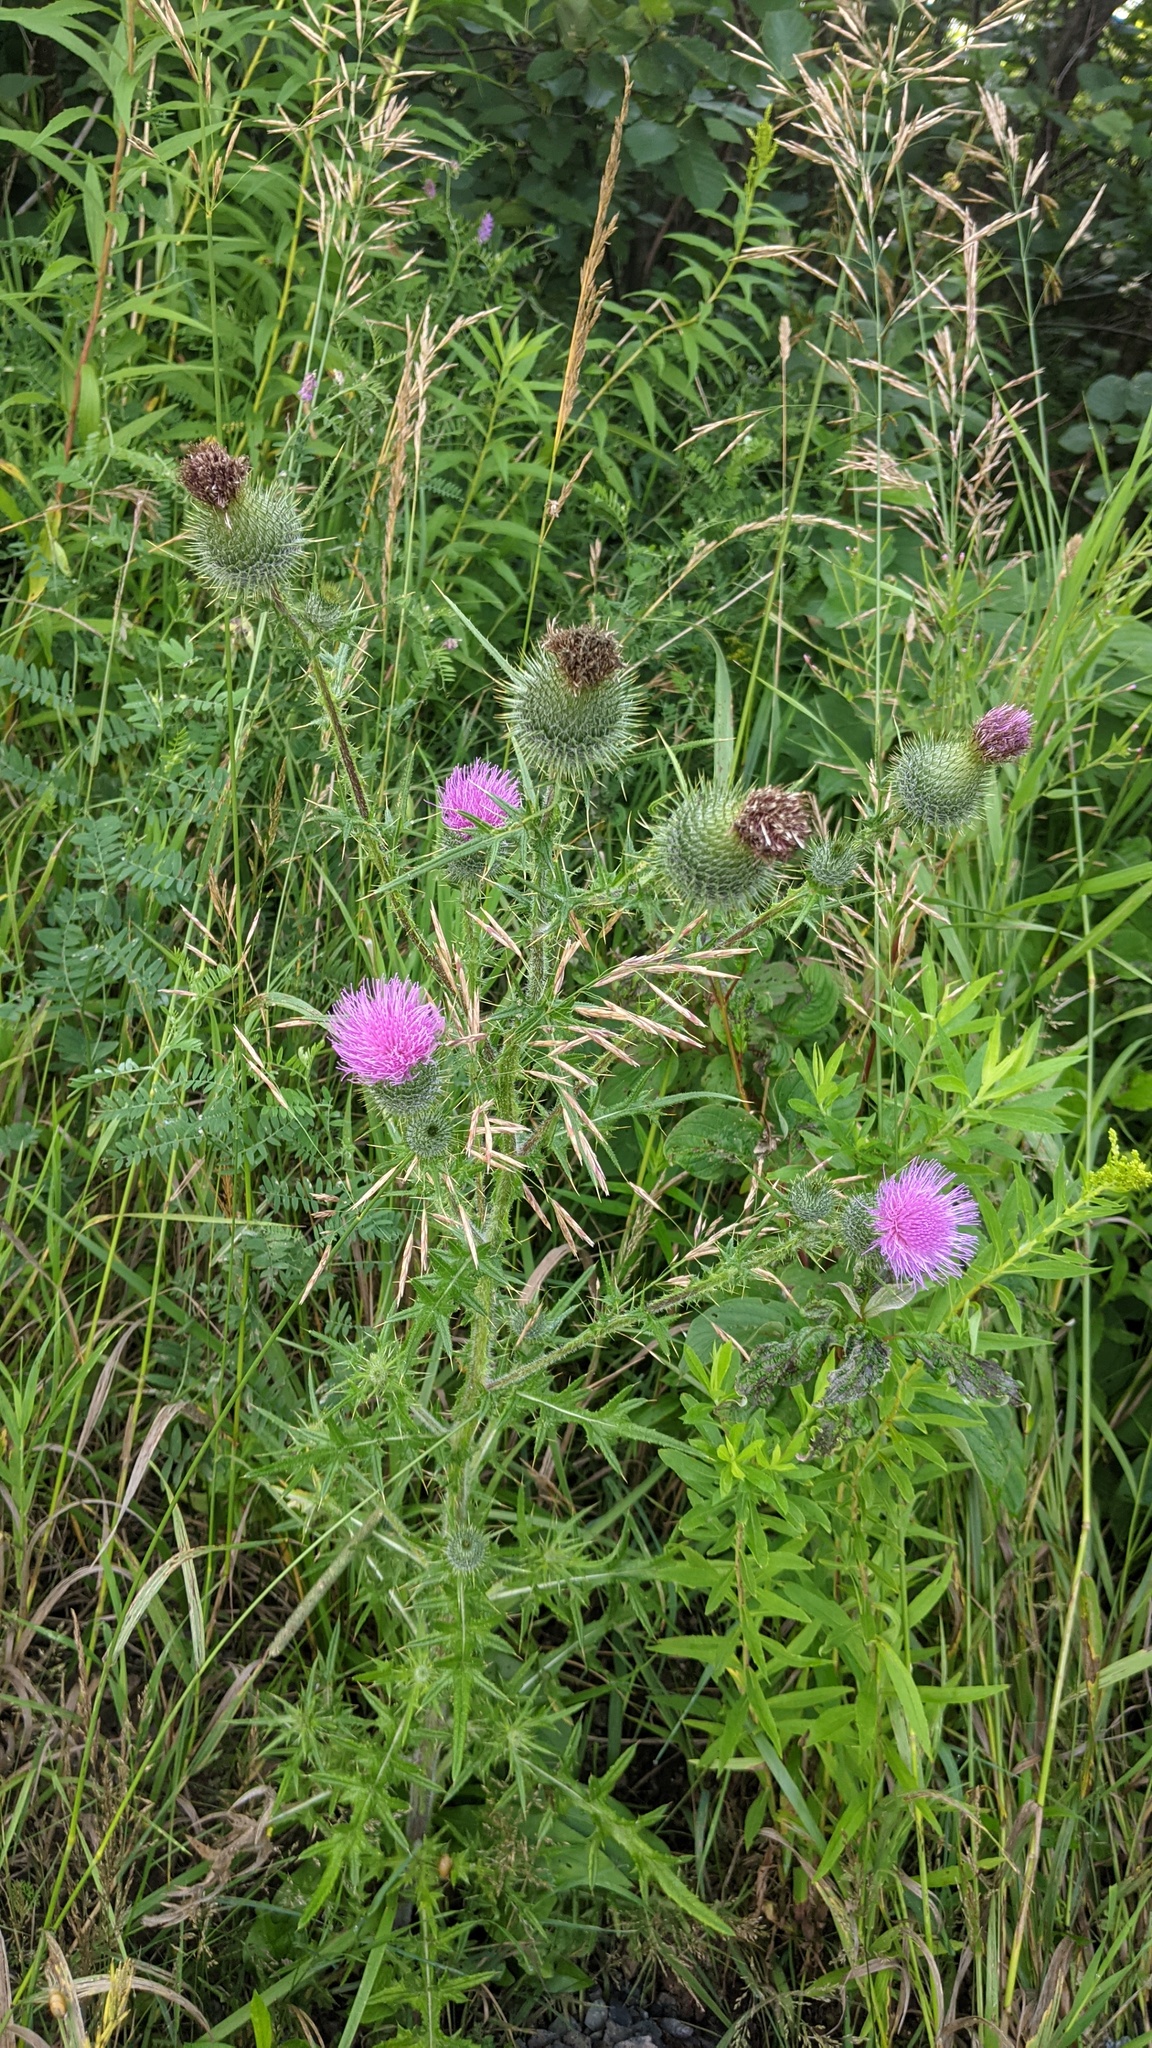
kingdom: Plantae
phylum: Tracheophyta
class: Magnoliopsida
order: Asterales
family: Asteraceae
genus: Cirsium
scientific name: Cirsium vulgare
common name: Bull thistle
